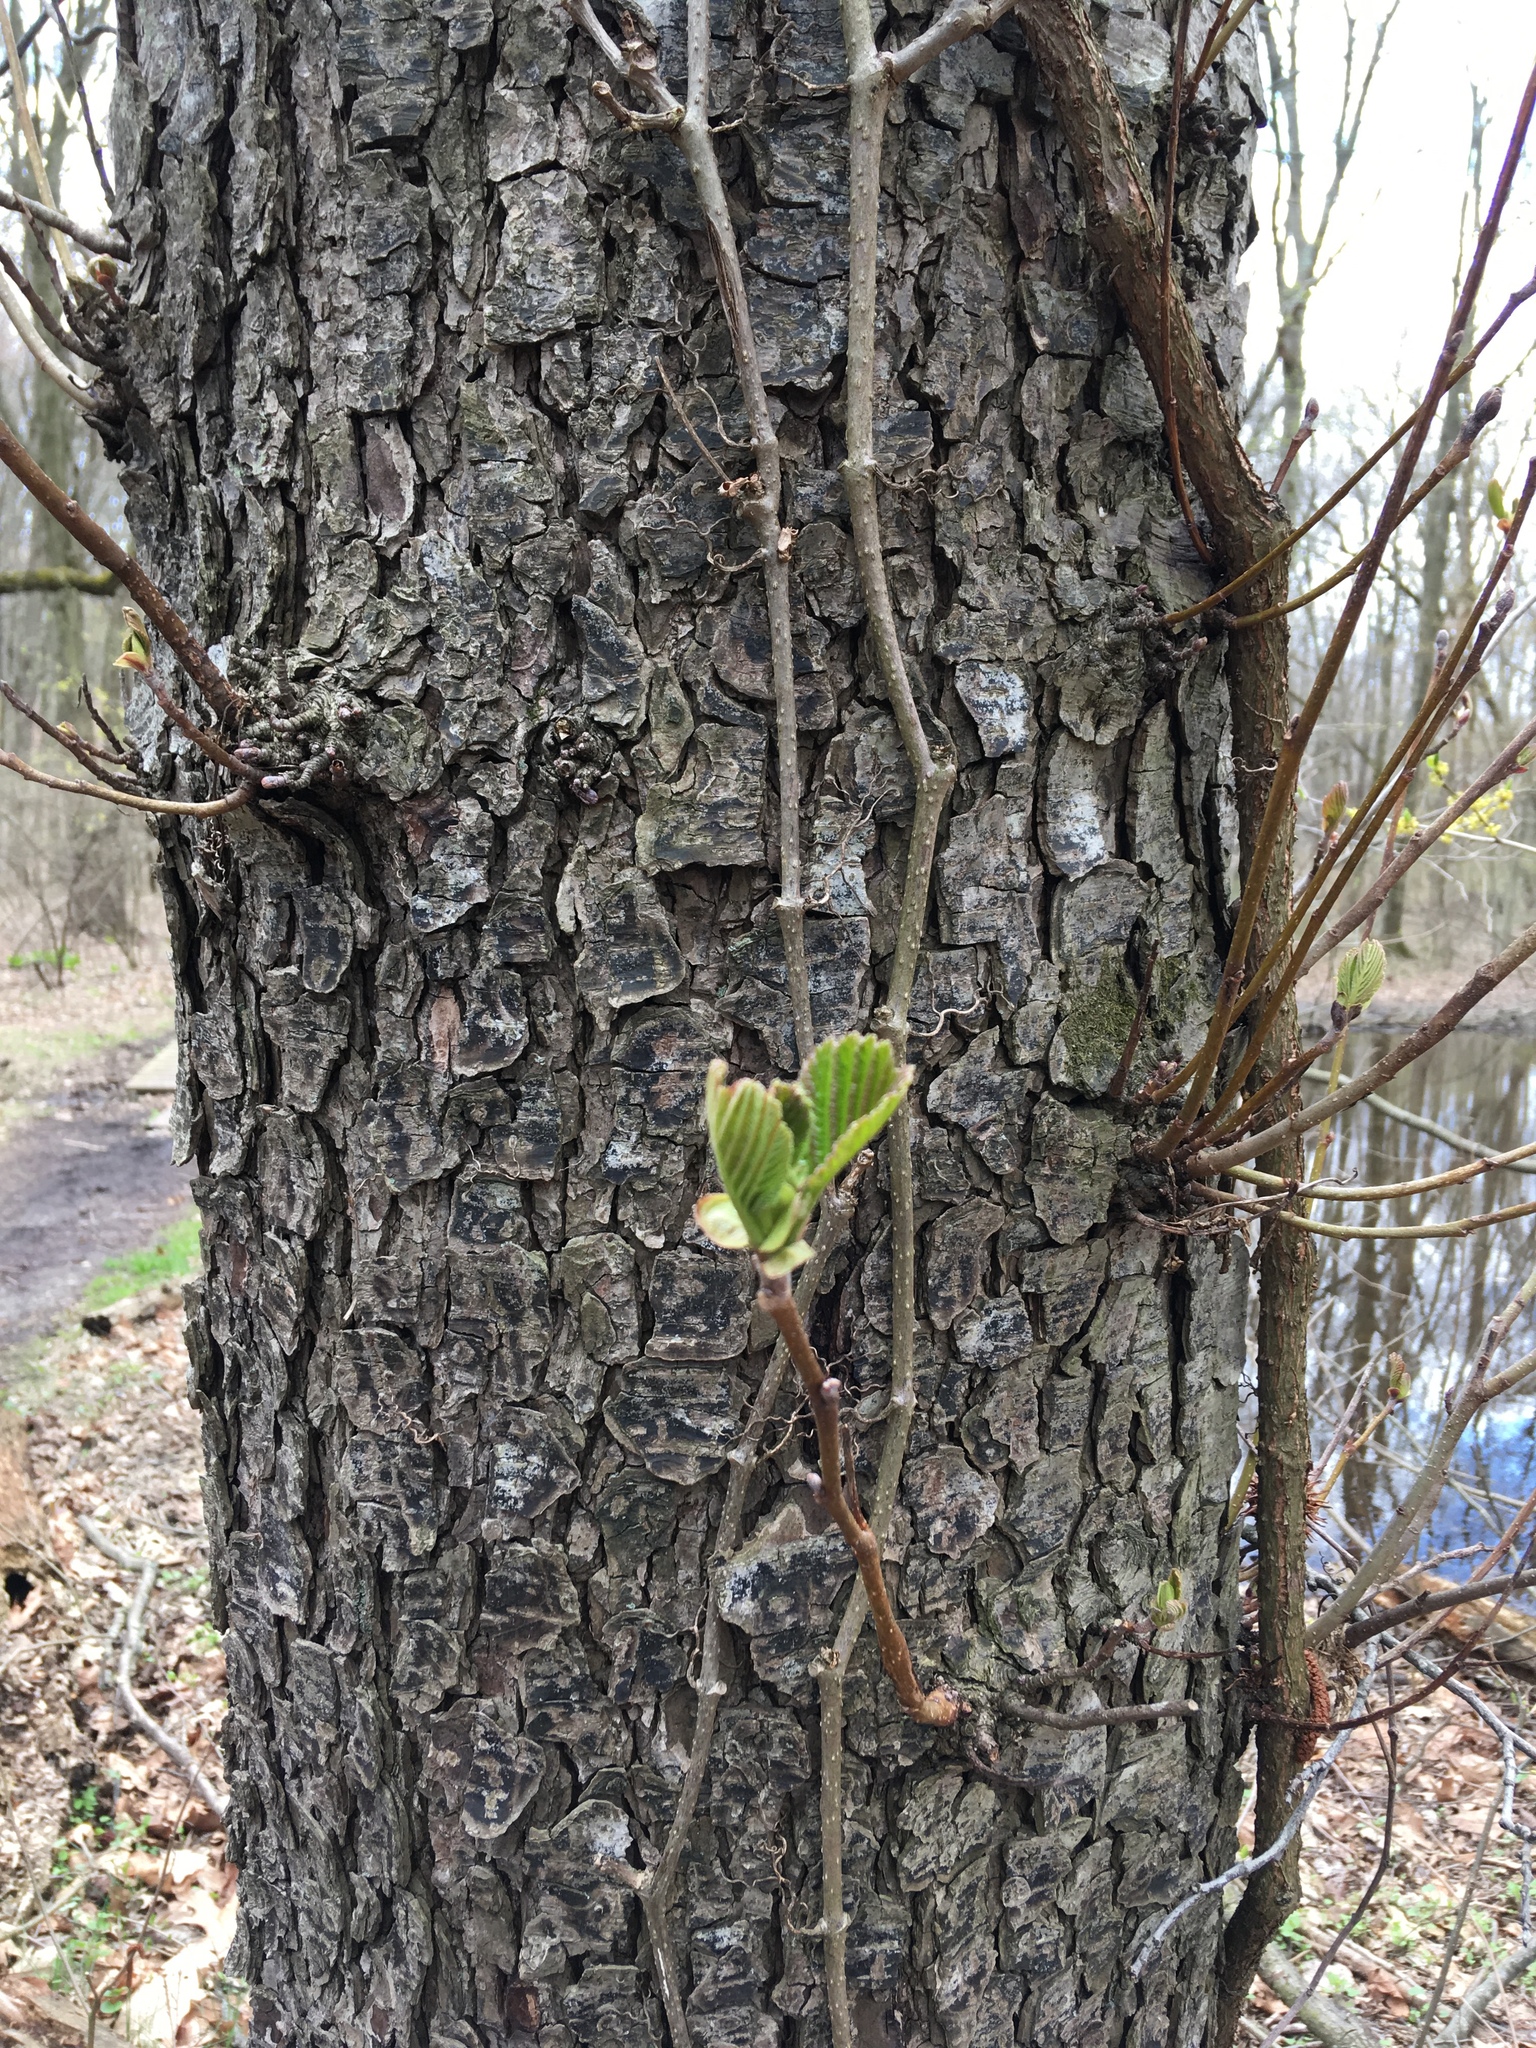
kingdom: Plantae
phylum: Tracheophyta
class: Magnoliopsida
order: Rosales
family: Rosaceae
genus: Prunus
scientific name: Prunus serotina
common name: Black cherry
